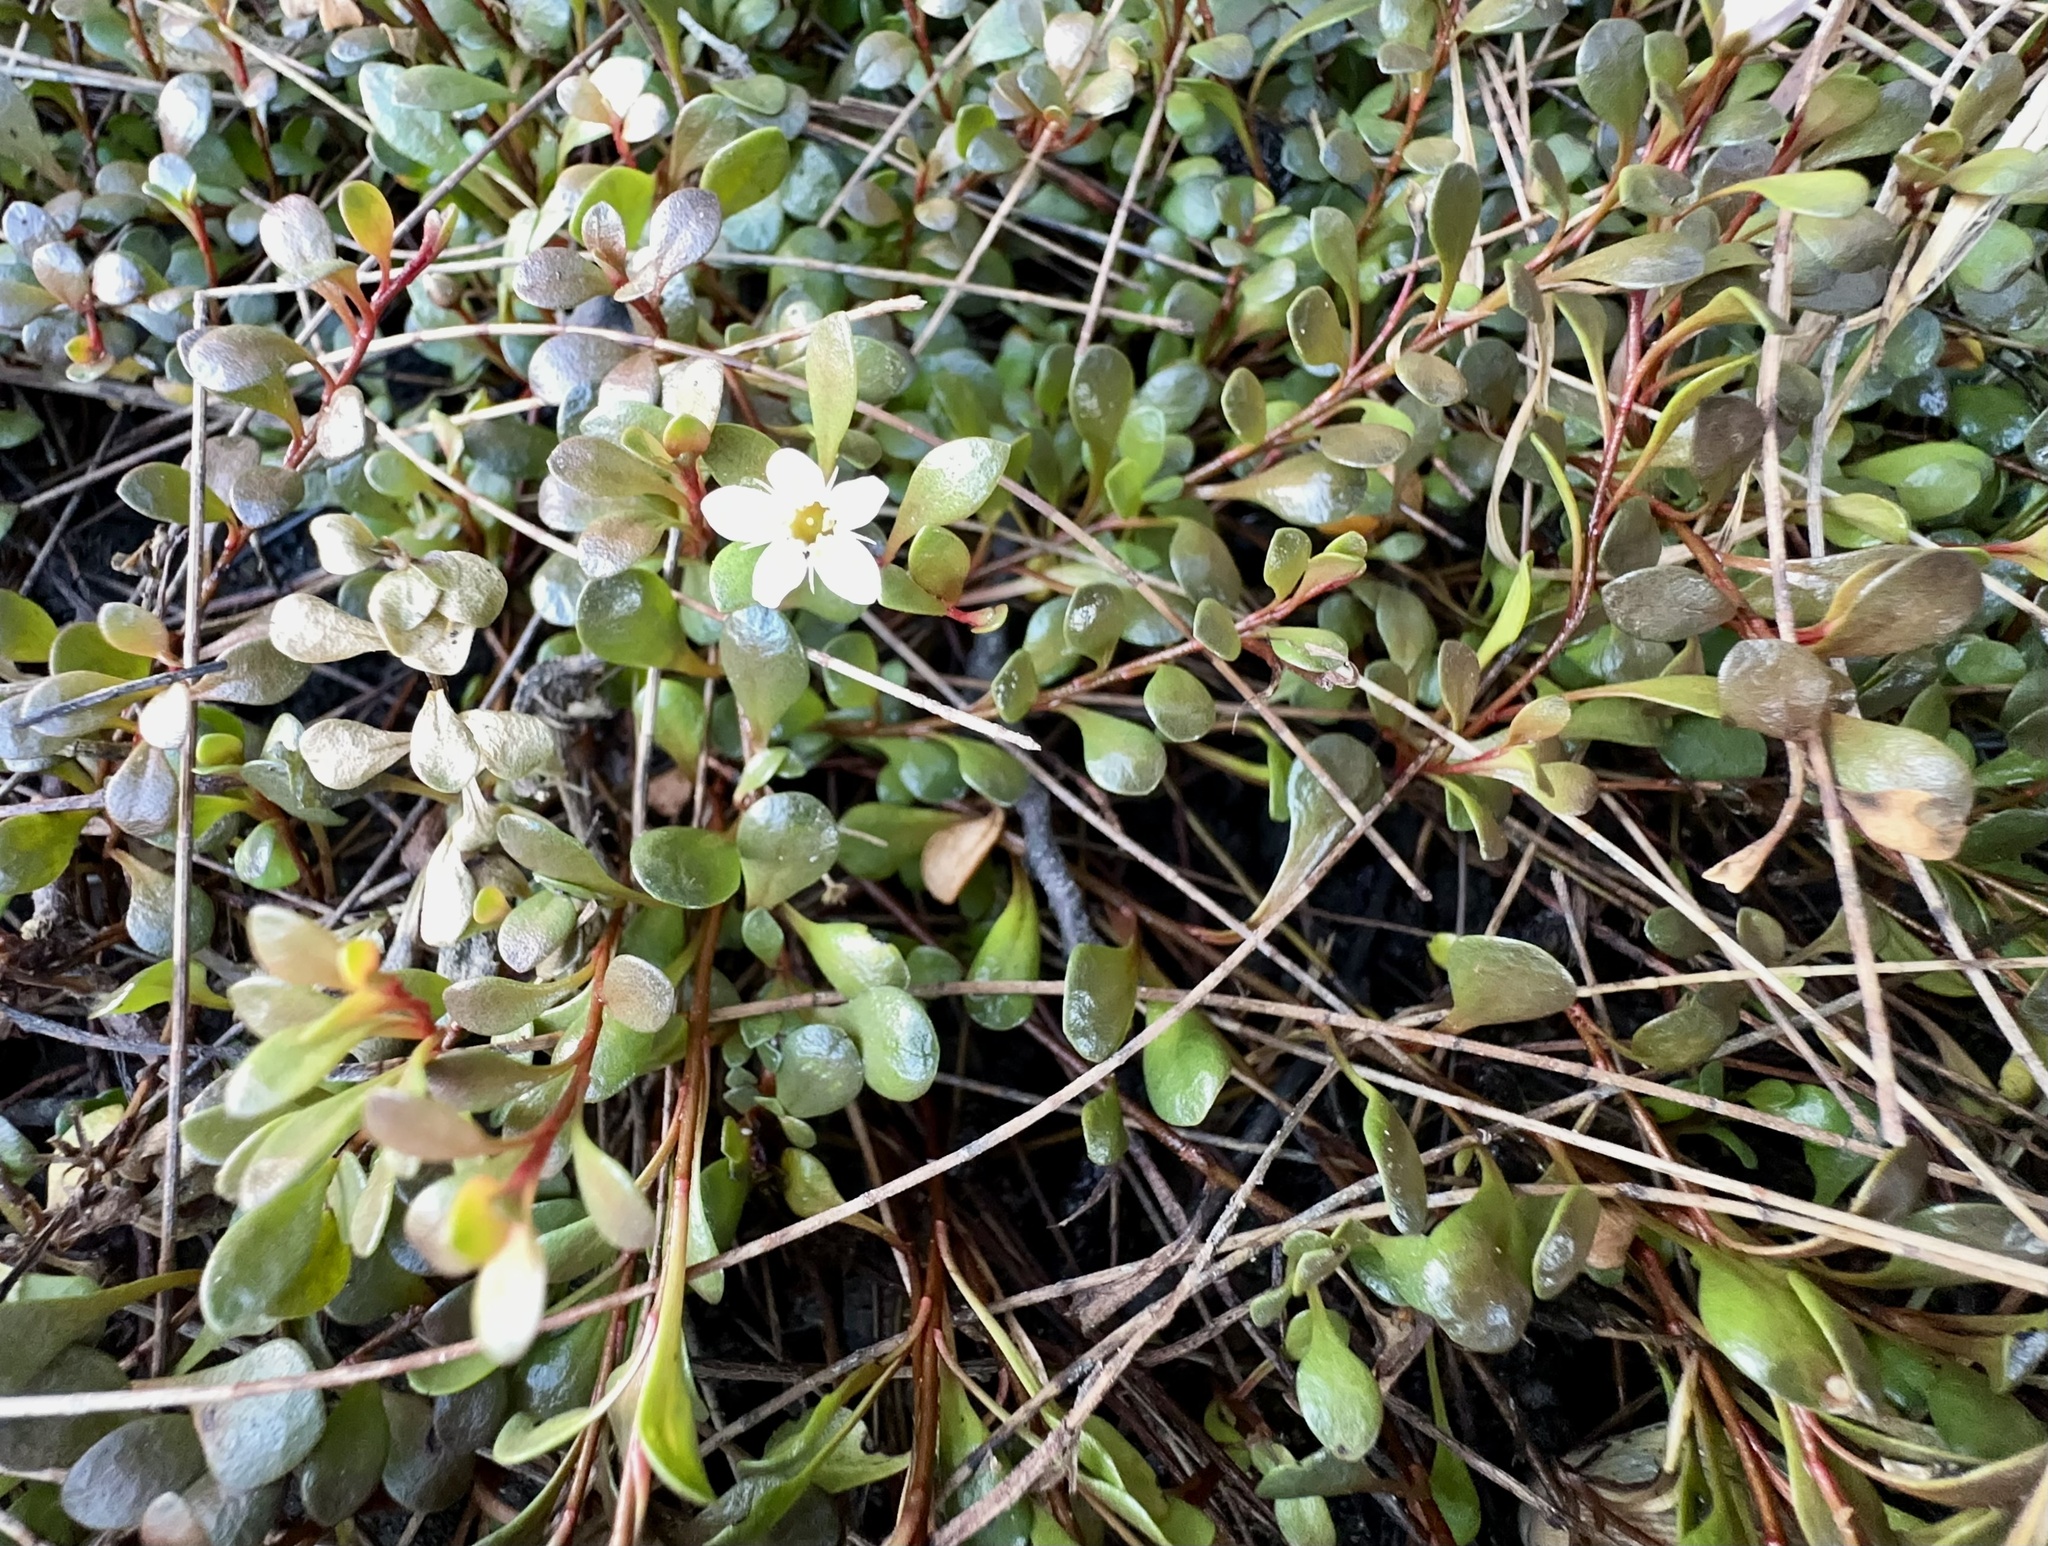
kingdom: Plantae
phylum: Tracheophyta
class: Magnoliopsida
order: Ericales
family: Primulaceae
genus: Samolus
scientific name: Samolus repens
